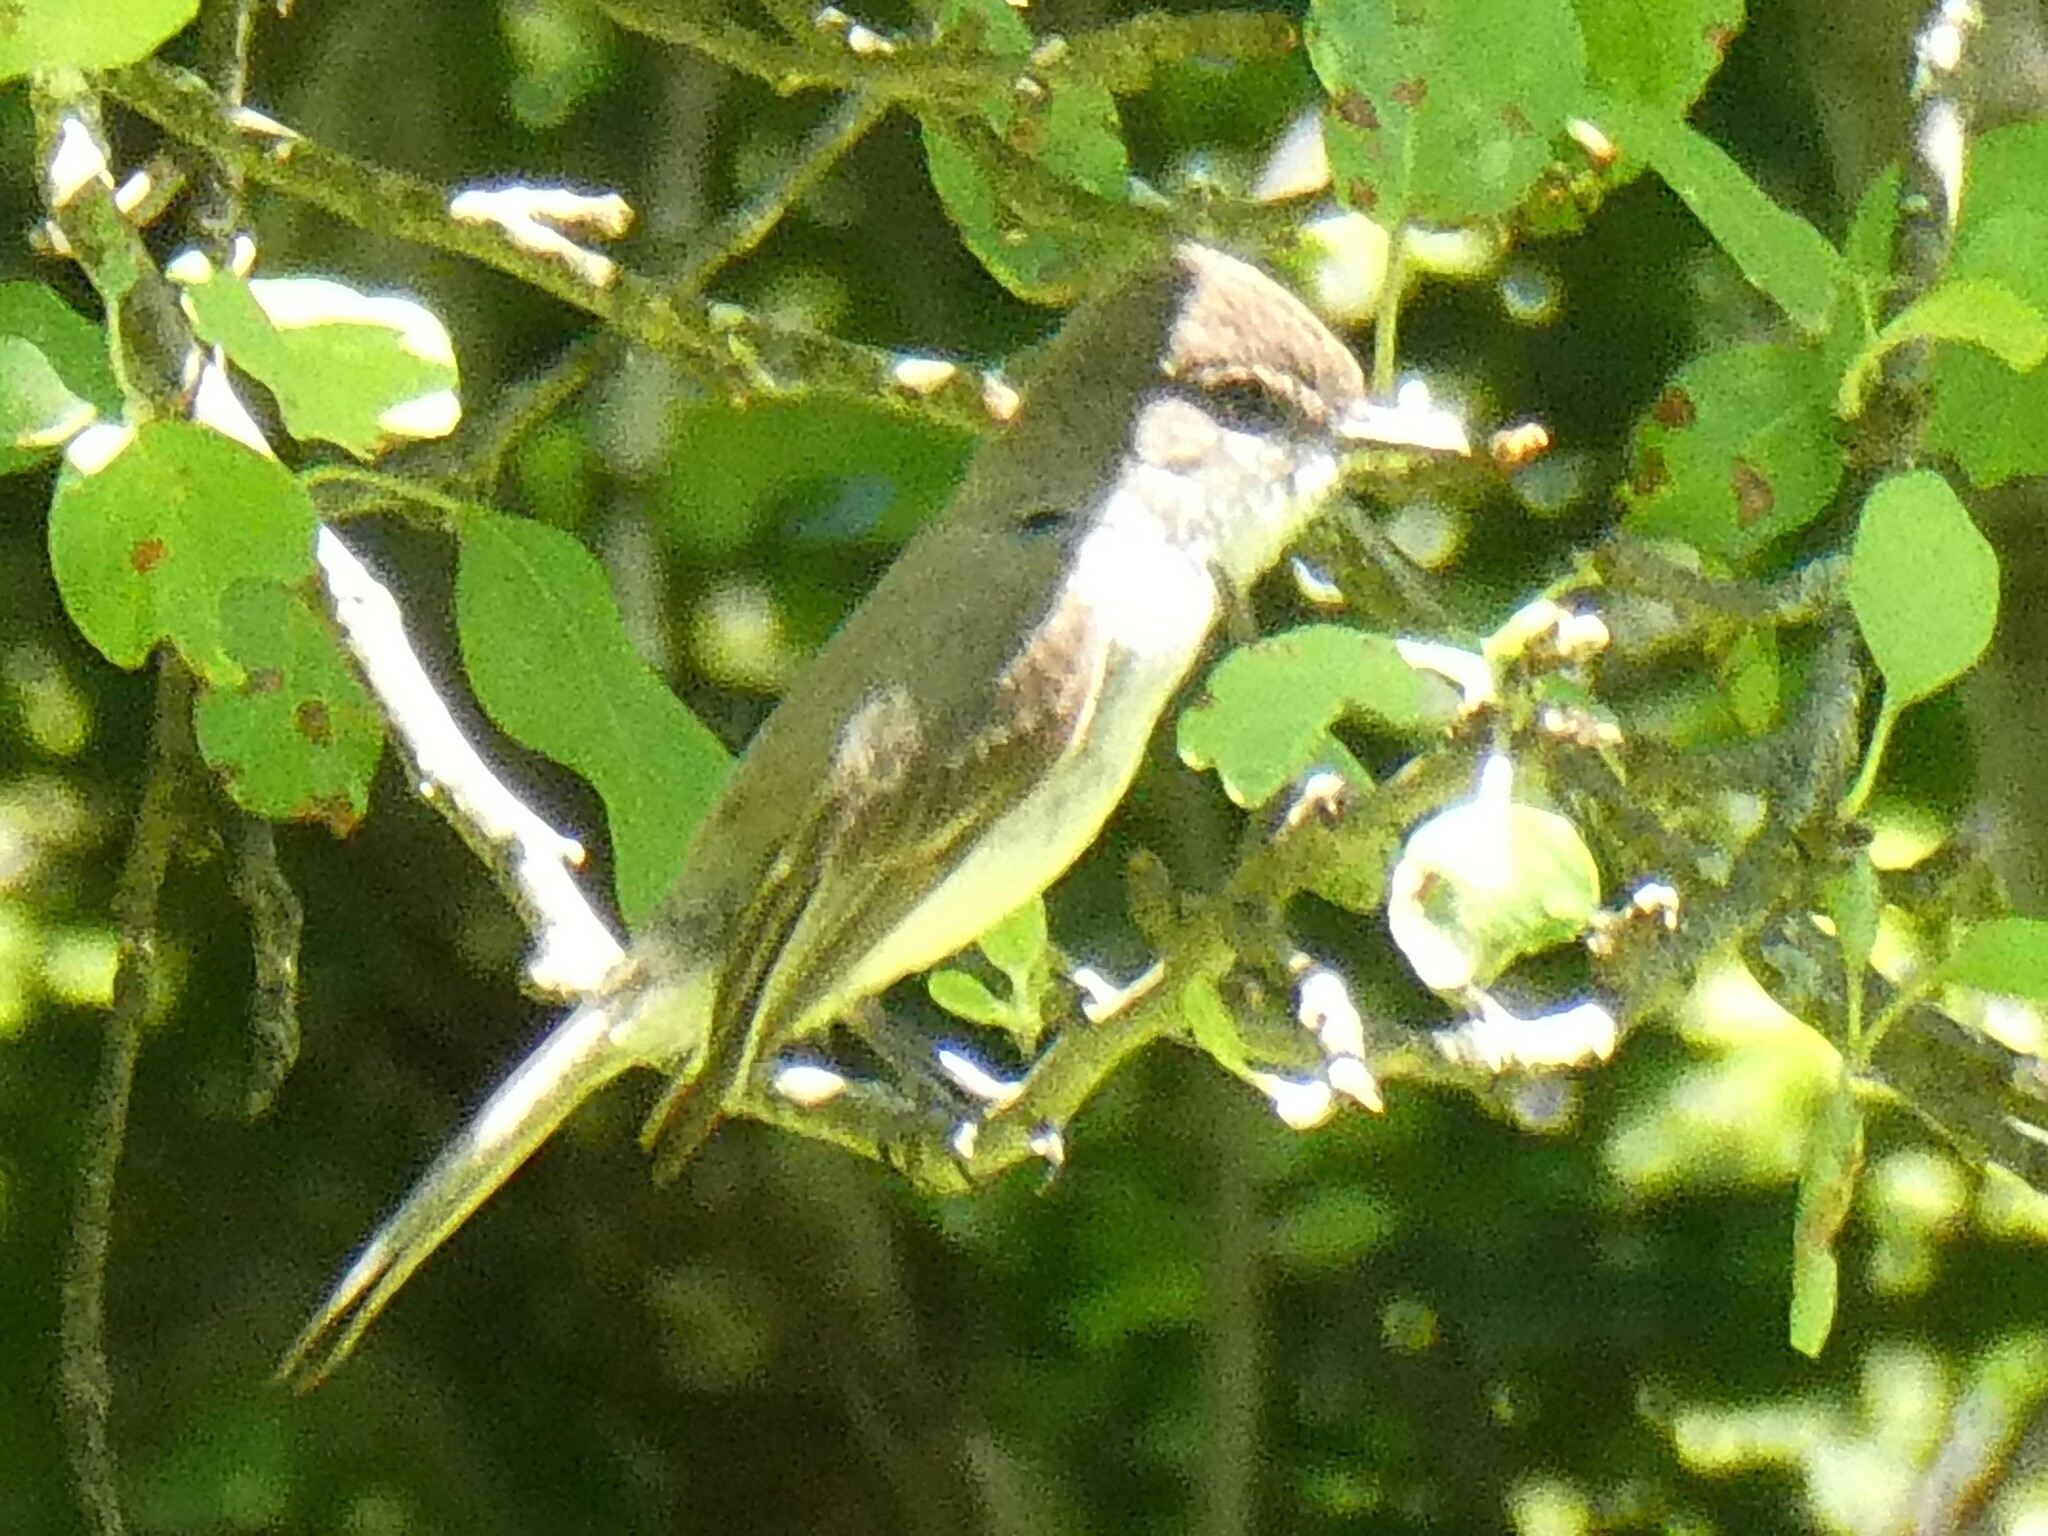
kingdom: Animalia
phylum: Chordata
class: Aves
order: Passeriformes
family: Tyrannidae
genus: Sayornis
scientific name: Sayornis phoebe
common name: Eastern phoebe
